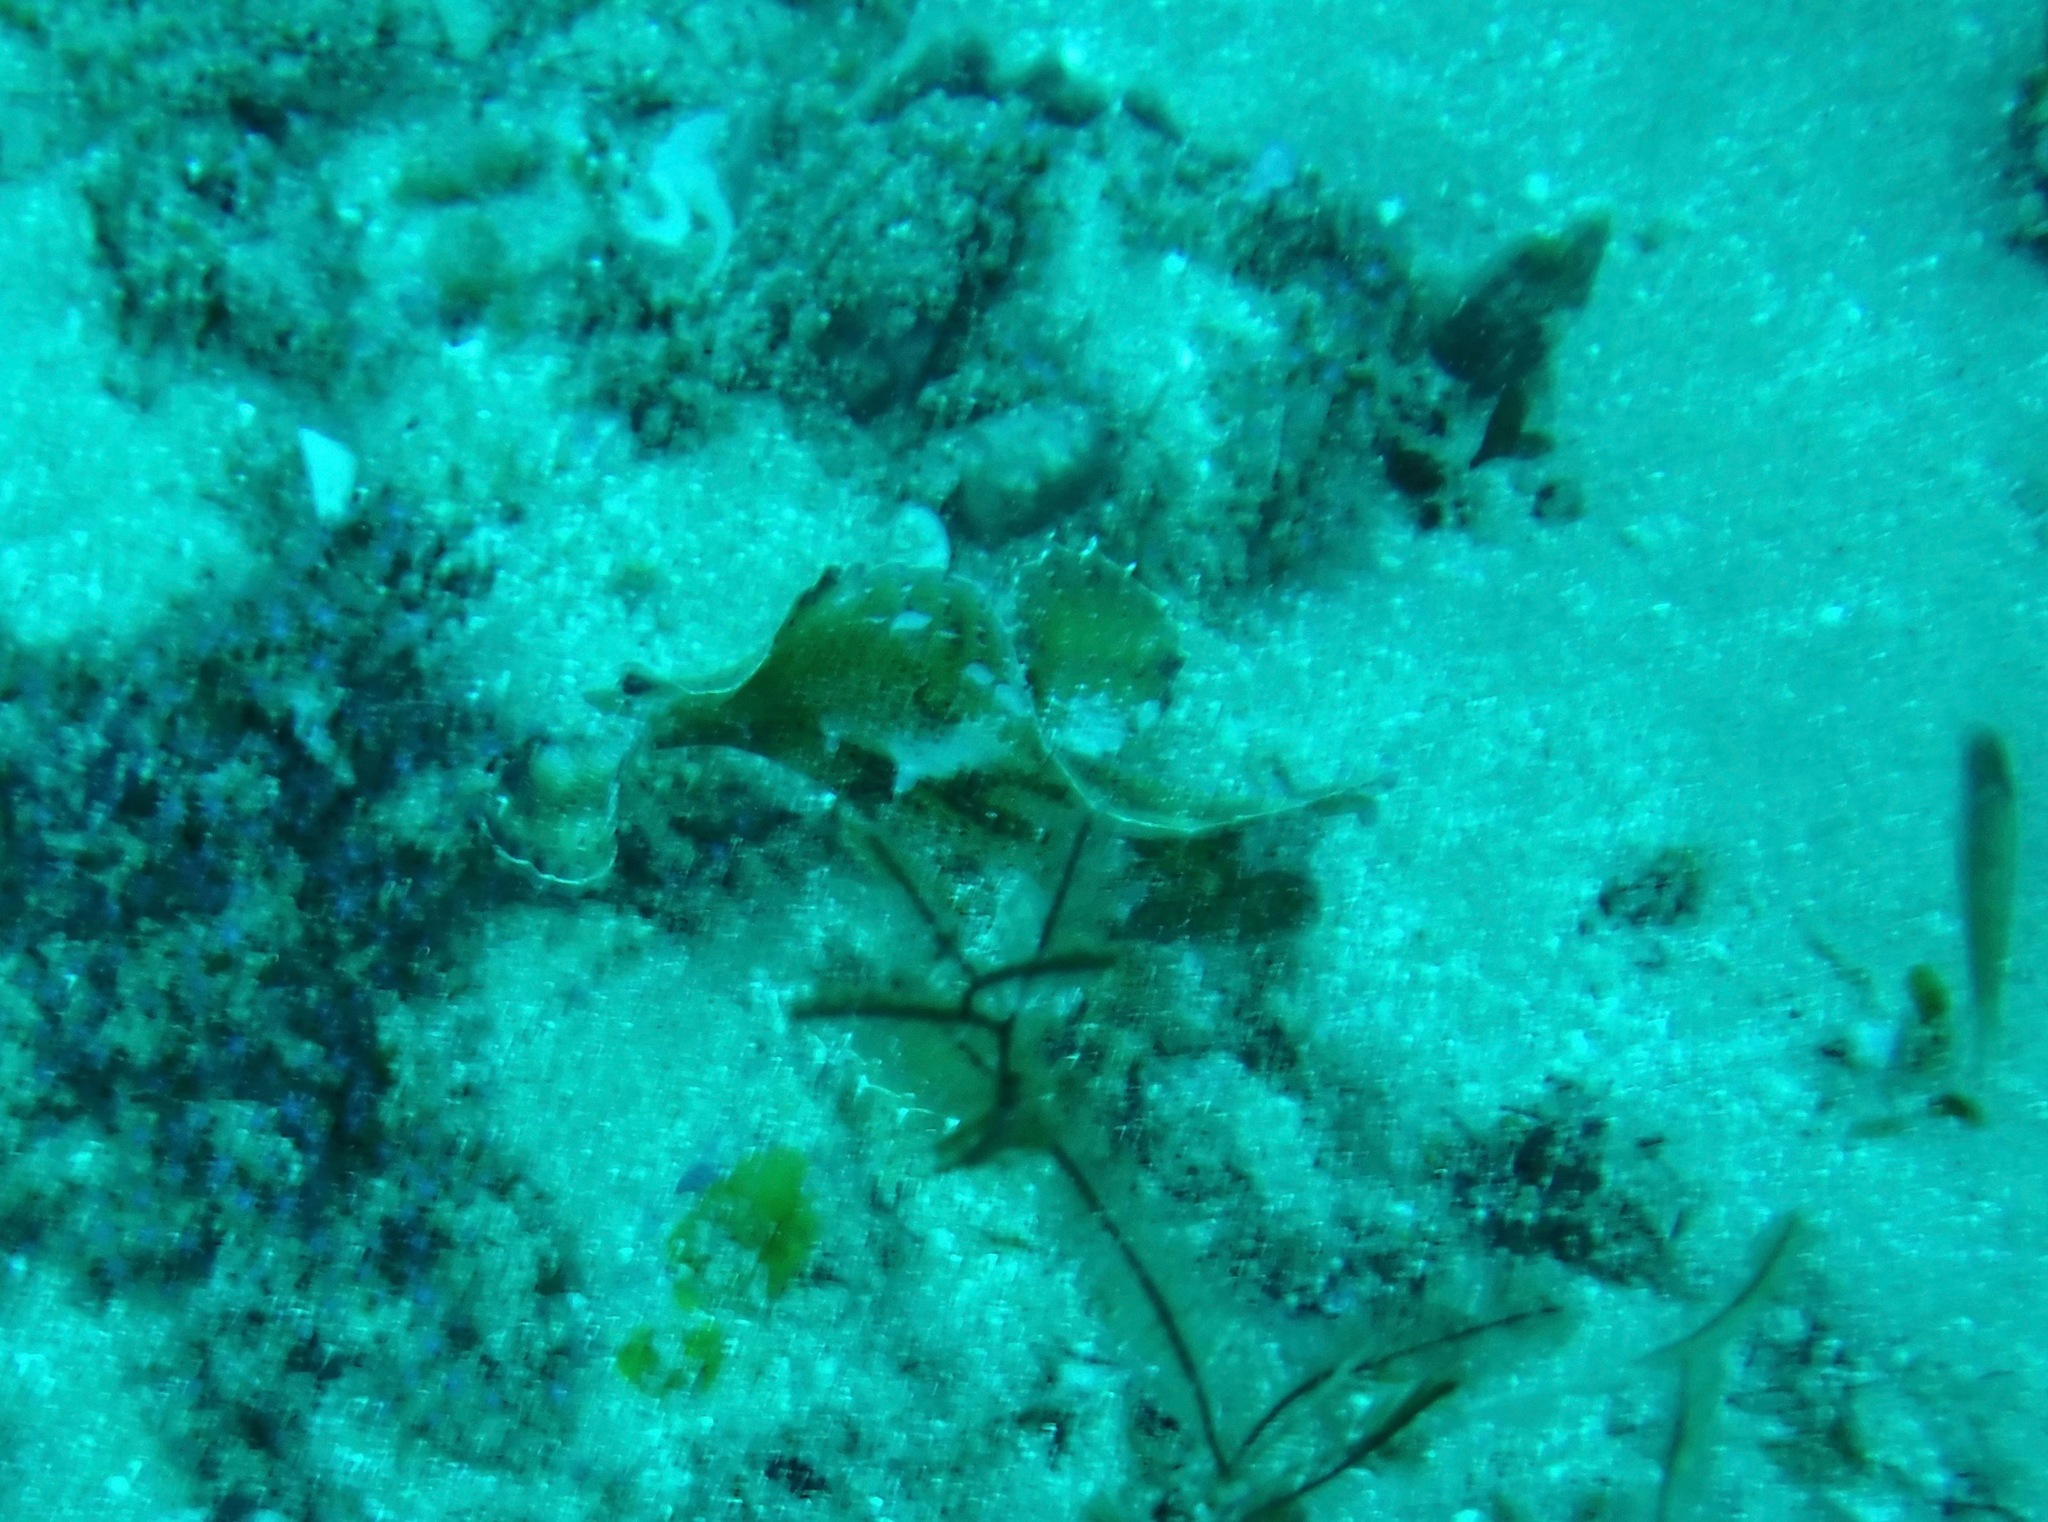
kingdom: Animalia
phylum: Chordata
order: Scorpaeniformes
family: Scorpaenidae
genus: Taenianotus
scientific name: Taenianotus triacanthus
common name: Leaf scorpionfish
